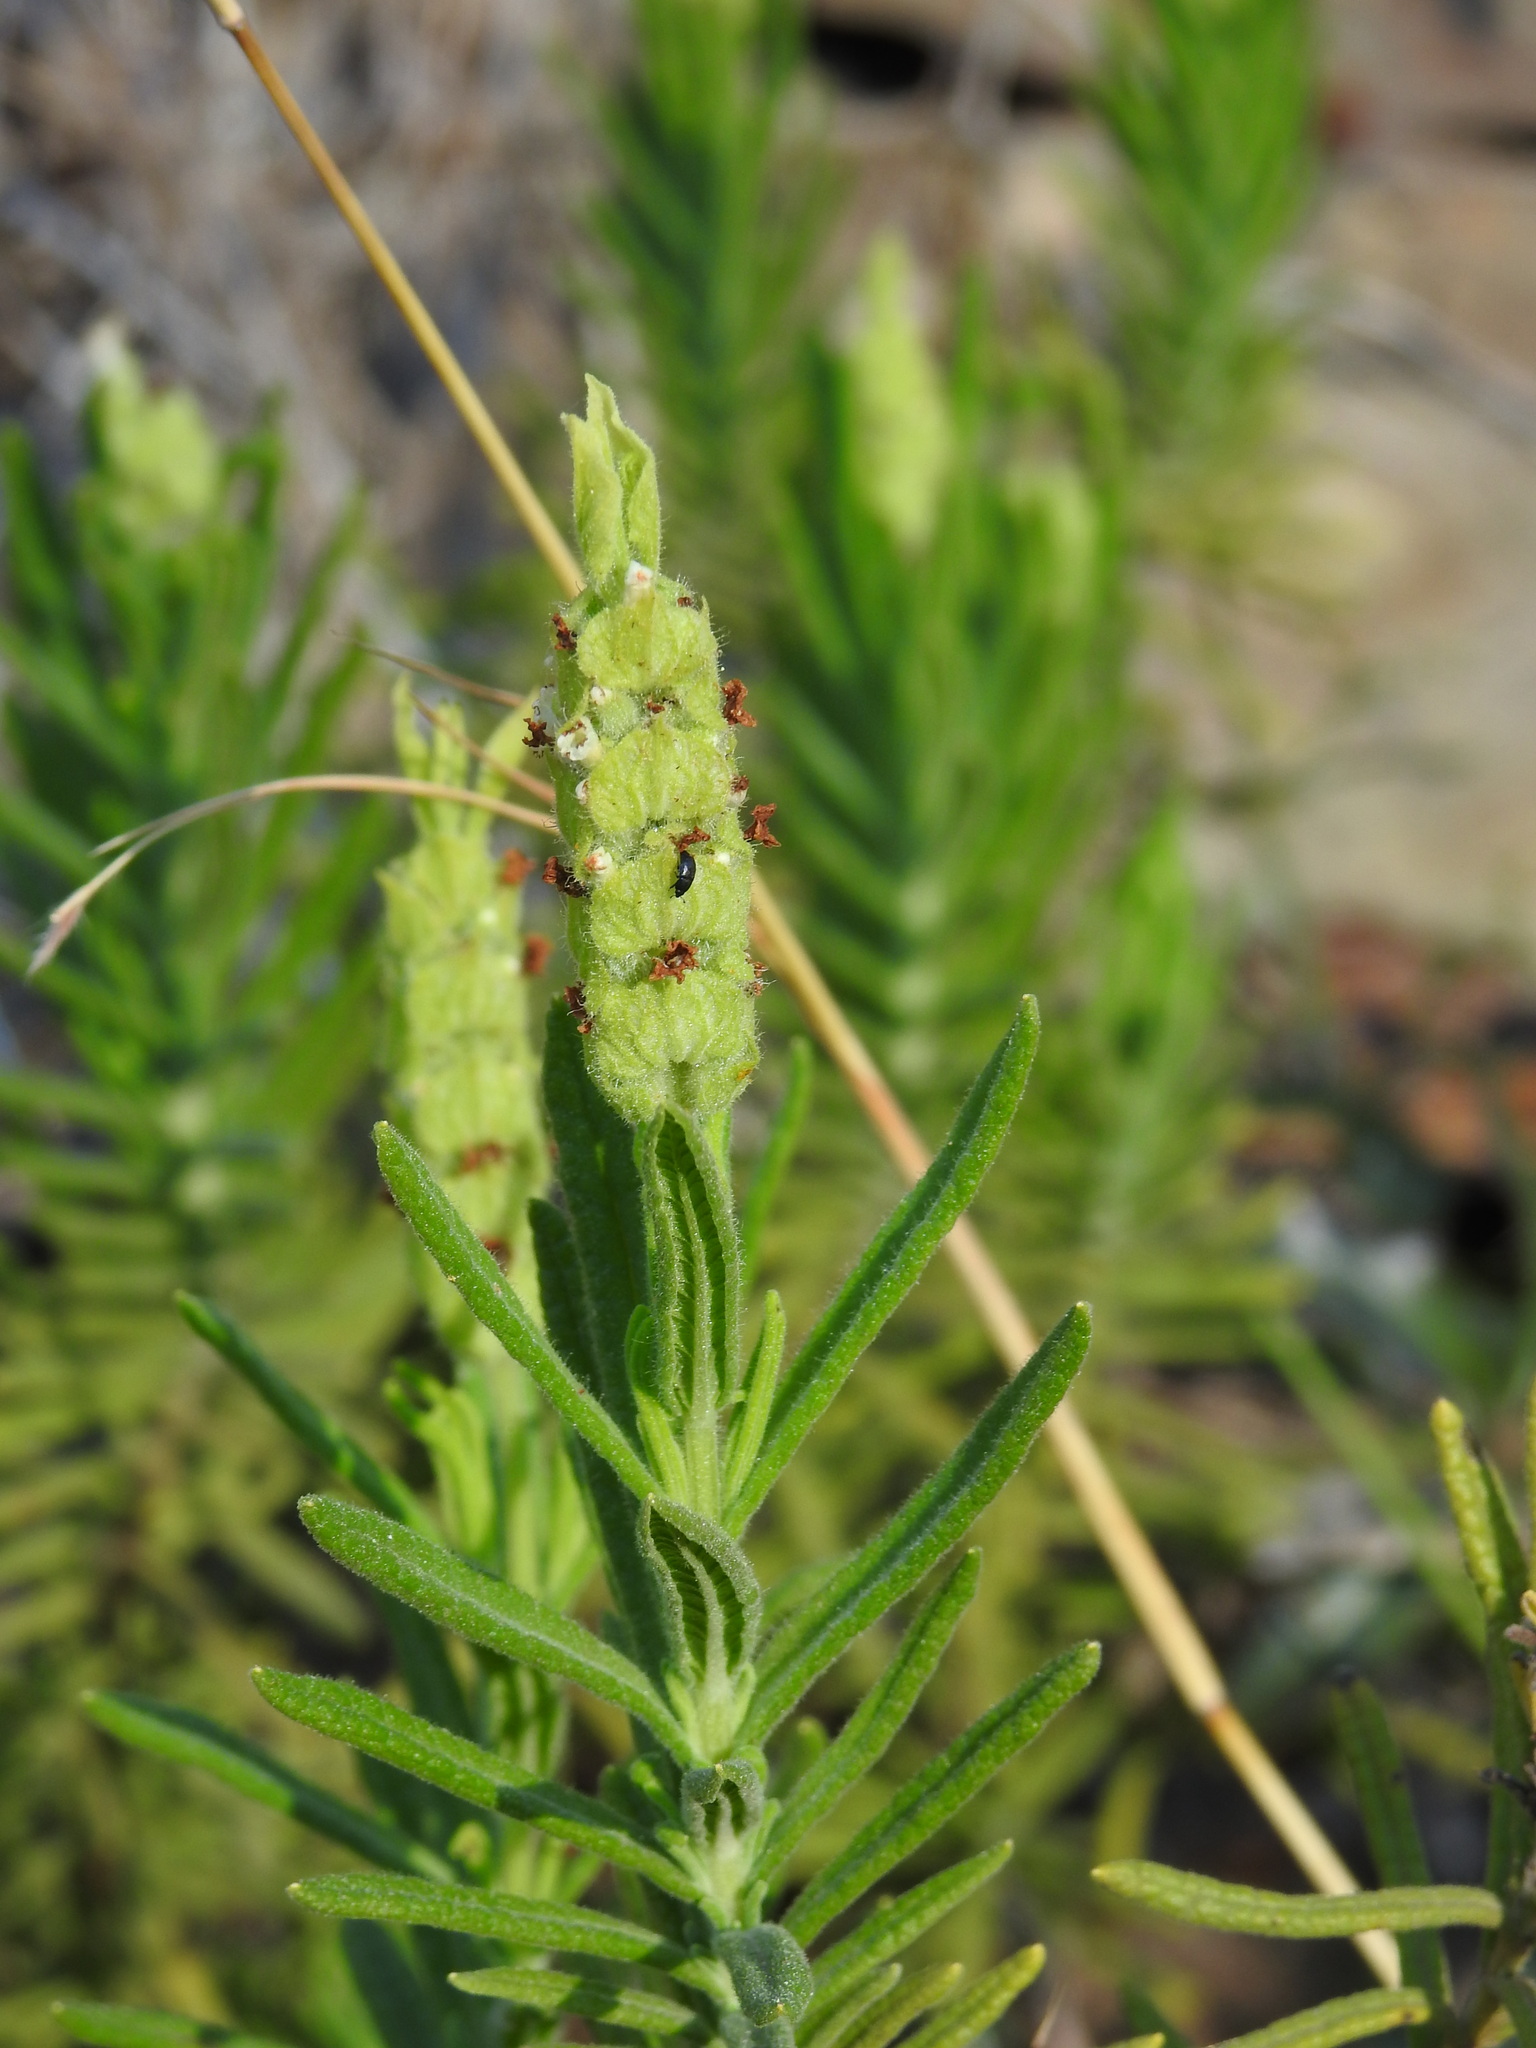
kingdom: Plantae
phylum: Tracheophyta
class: Magnoliopsida
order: Lamiales
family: Lamiaceae
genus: Lavandula
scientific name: Lavandula viridis
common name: Green spanish lavender
